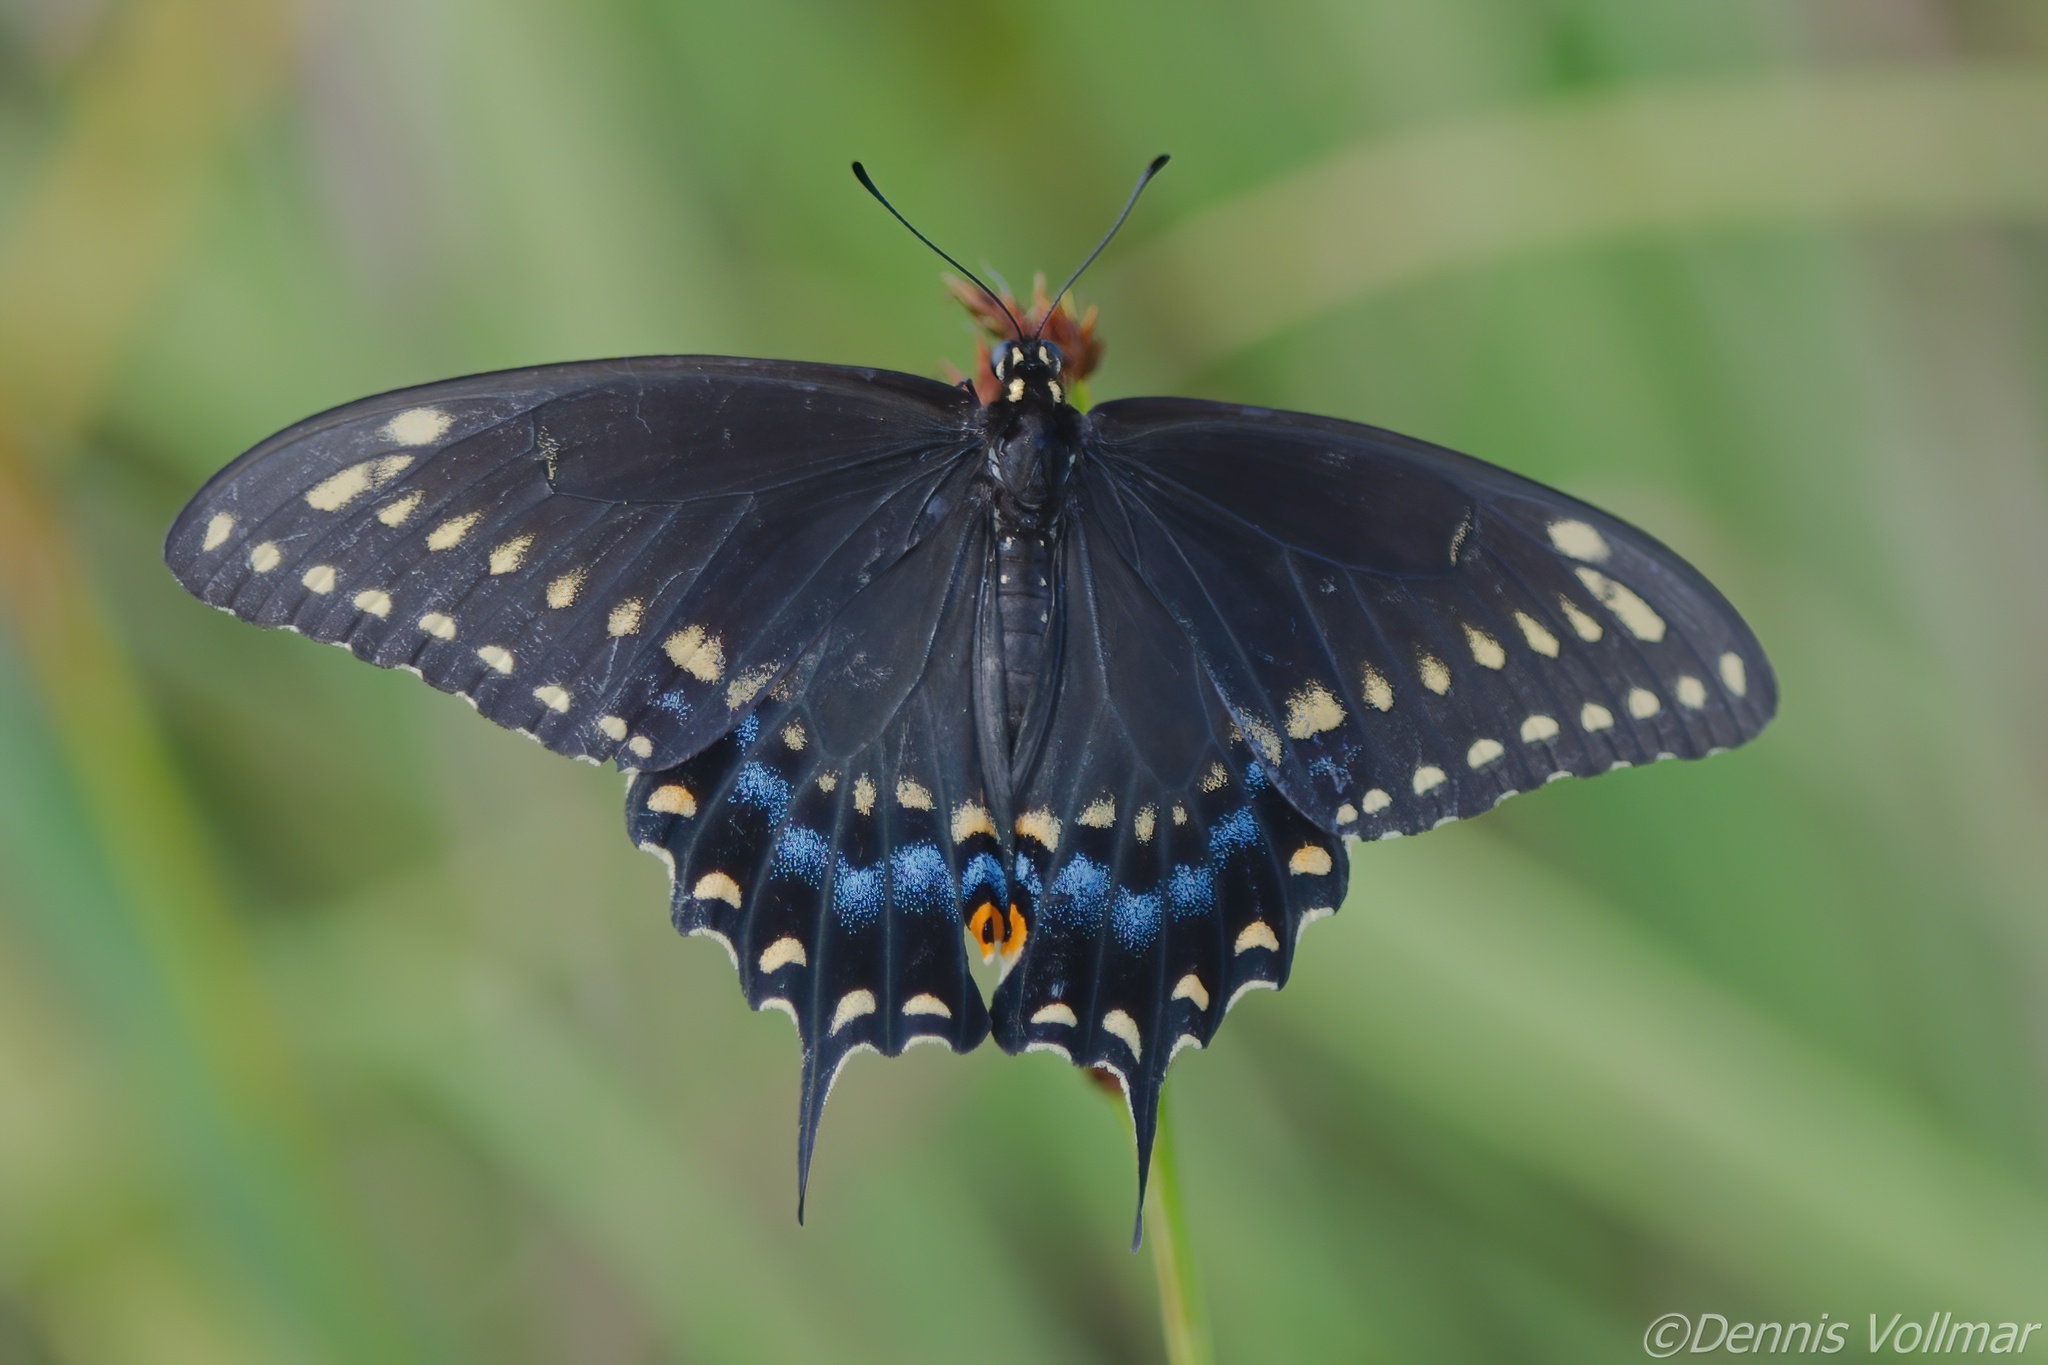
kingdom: Animalia
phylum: Arthropoda
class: Insecta
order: Lepidoptera
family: Papilionidae
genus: Papilio
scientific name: Papilio polyxenes
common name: Black swallowtail
